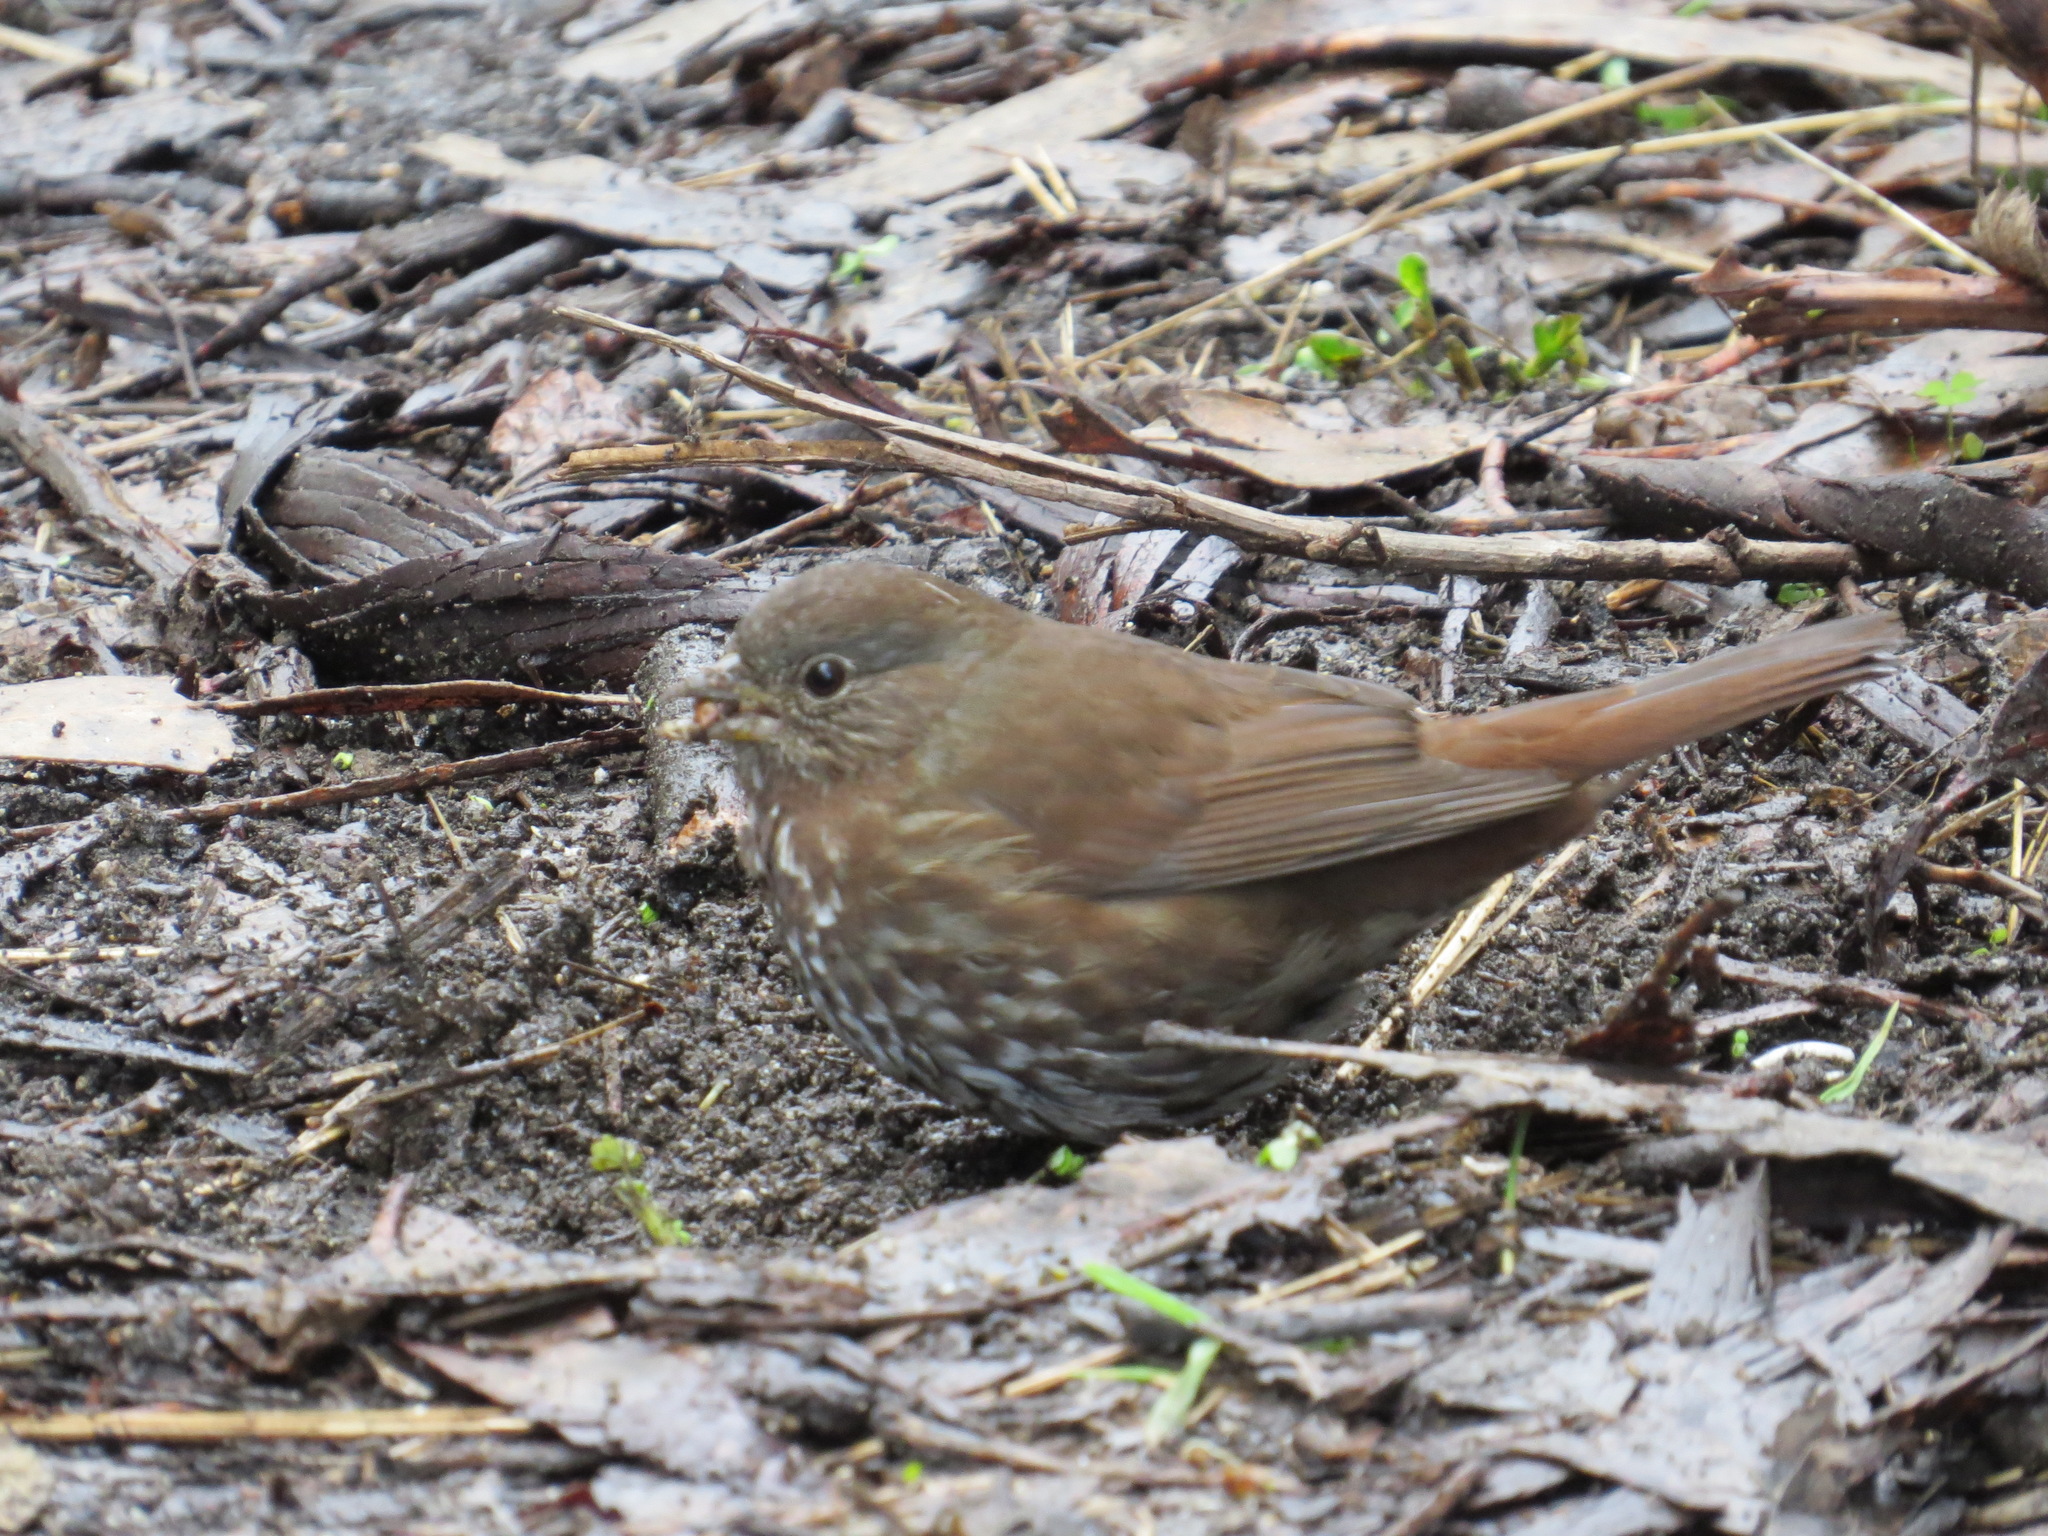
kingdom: Animalia
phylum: Chordata
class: Aves
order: Passeriformes
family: Passerellidae
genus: Passerella
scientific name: Passerella iliaca
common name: Fox sparrow
